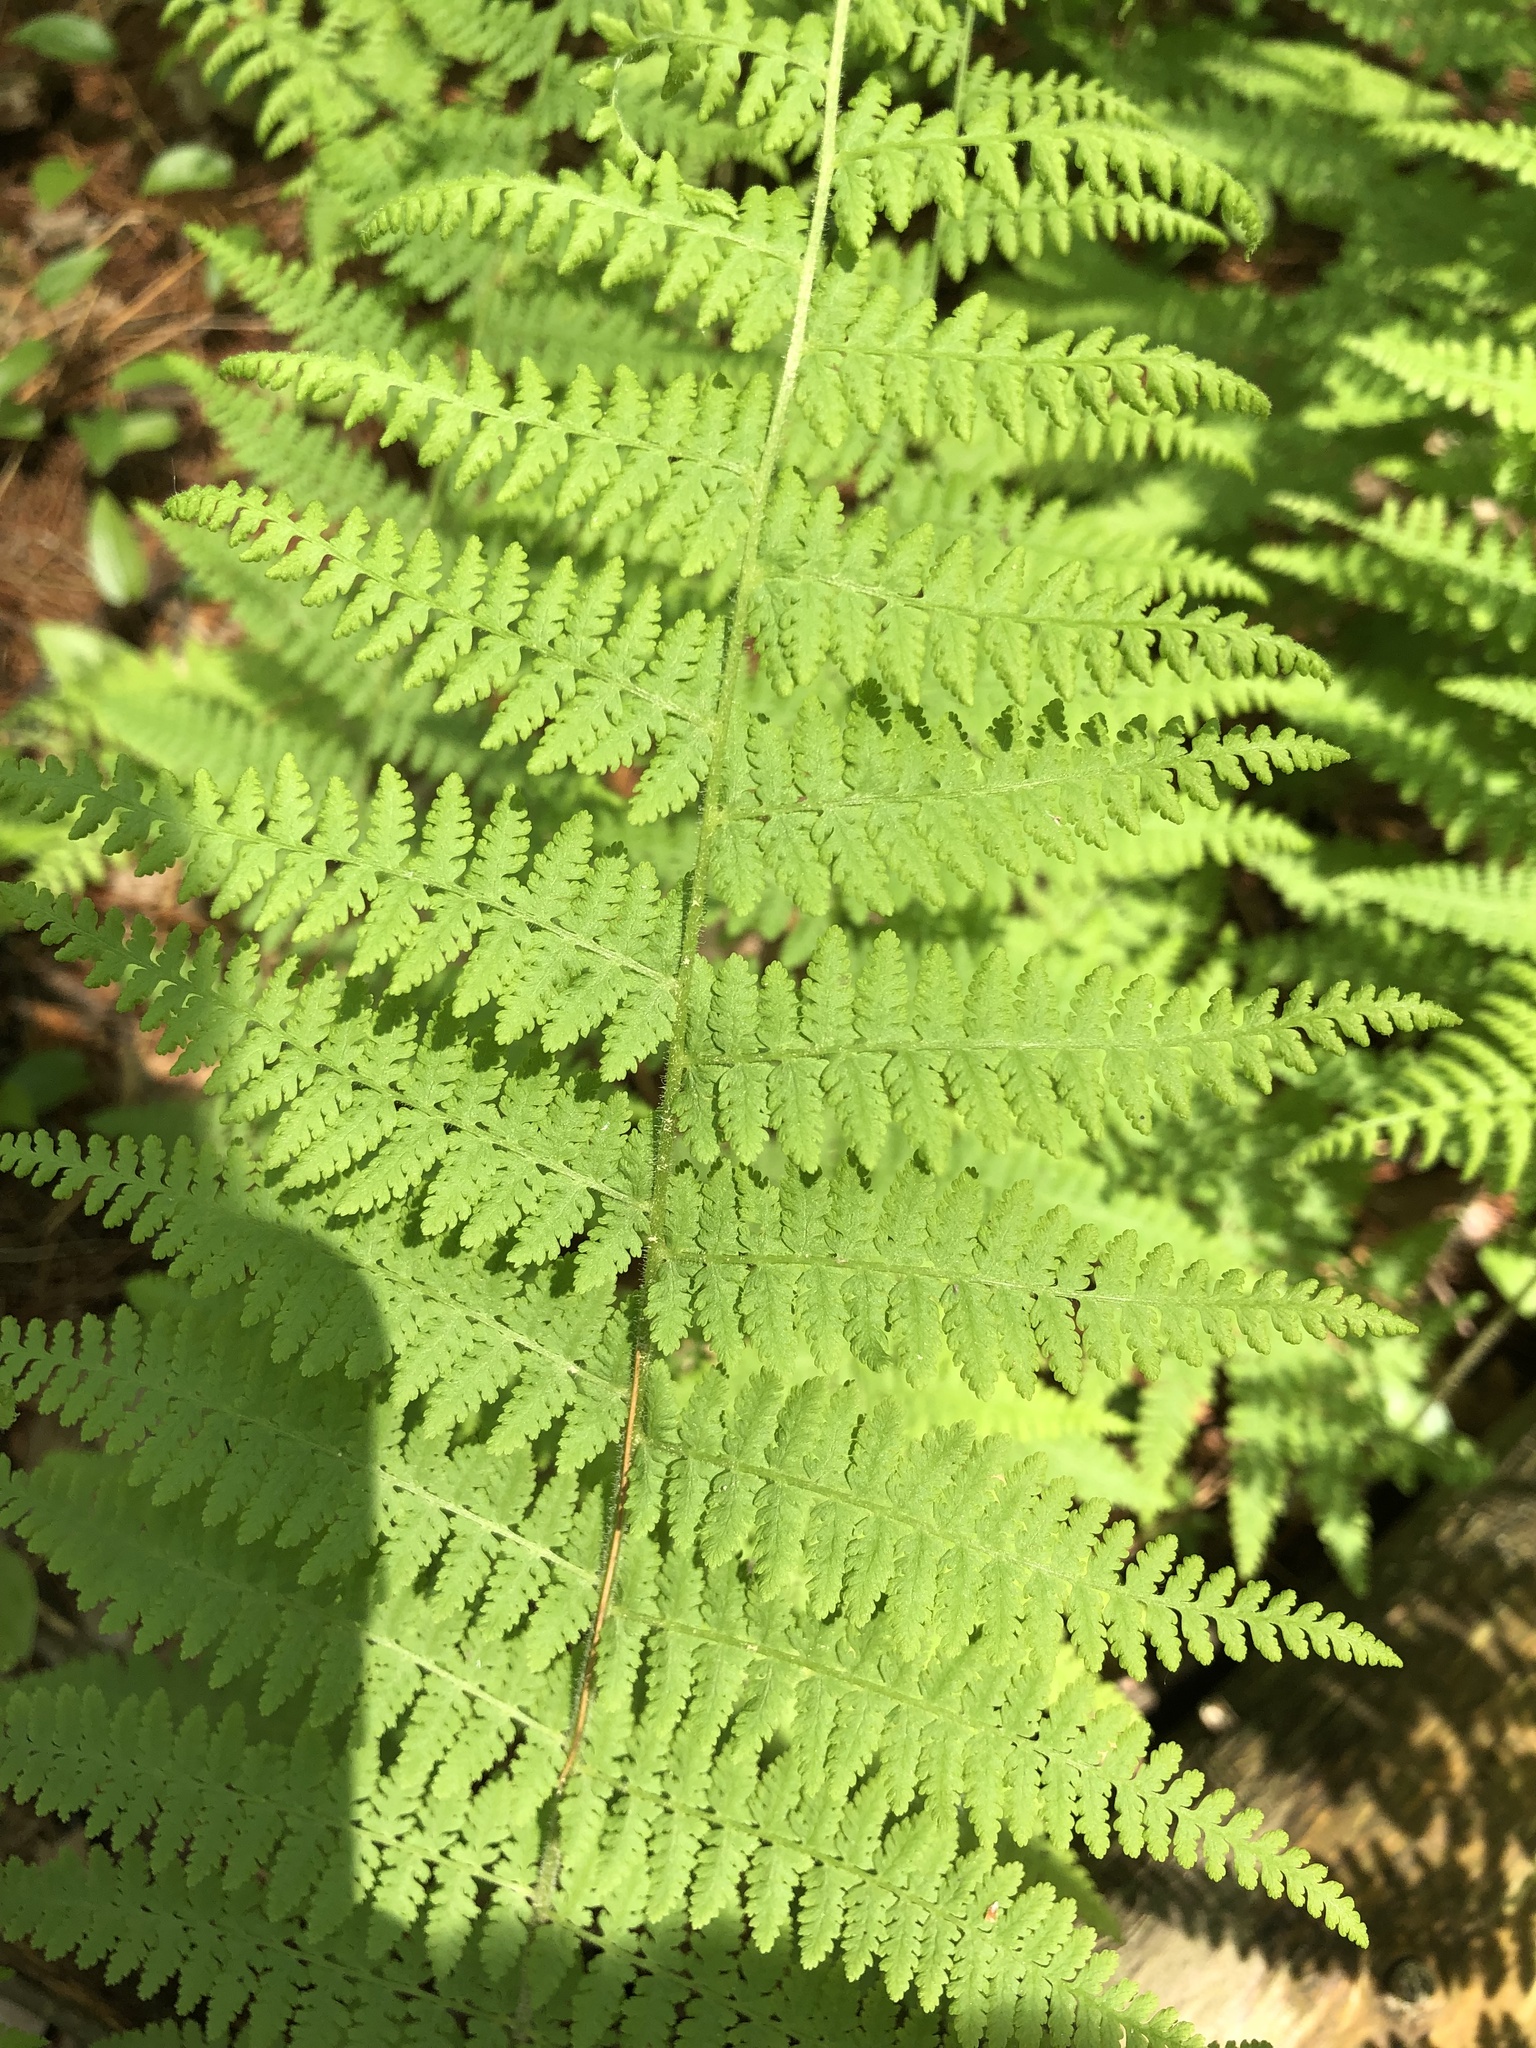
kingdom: Plantae
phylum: Tracheophyta
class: Polypodiopsida
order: Polypodiales
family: Dennstaedtiaceae
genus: Sitobolium
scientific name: Sitobolium punctilobum
